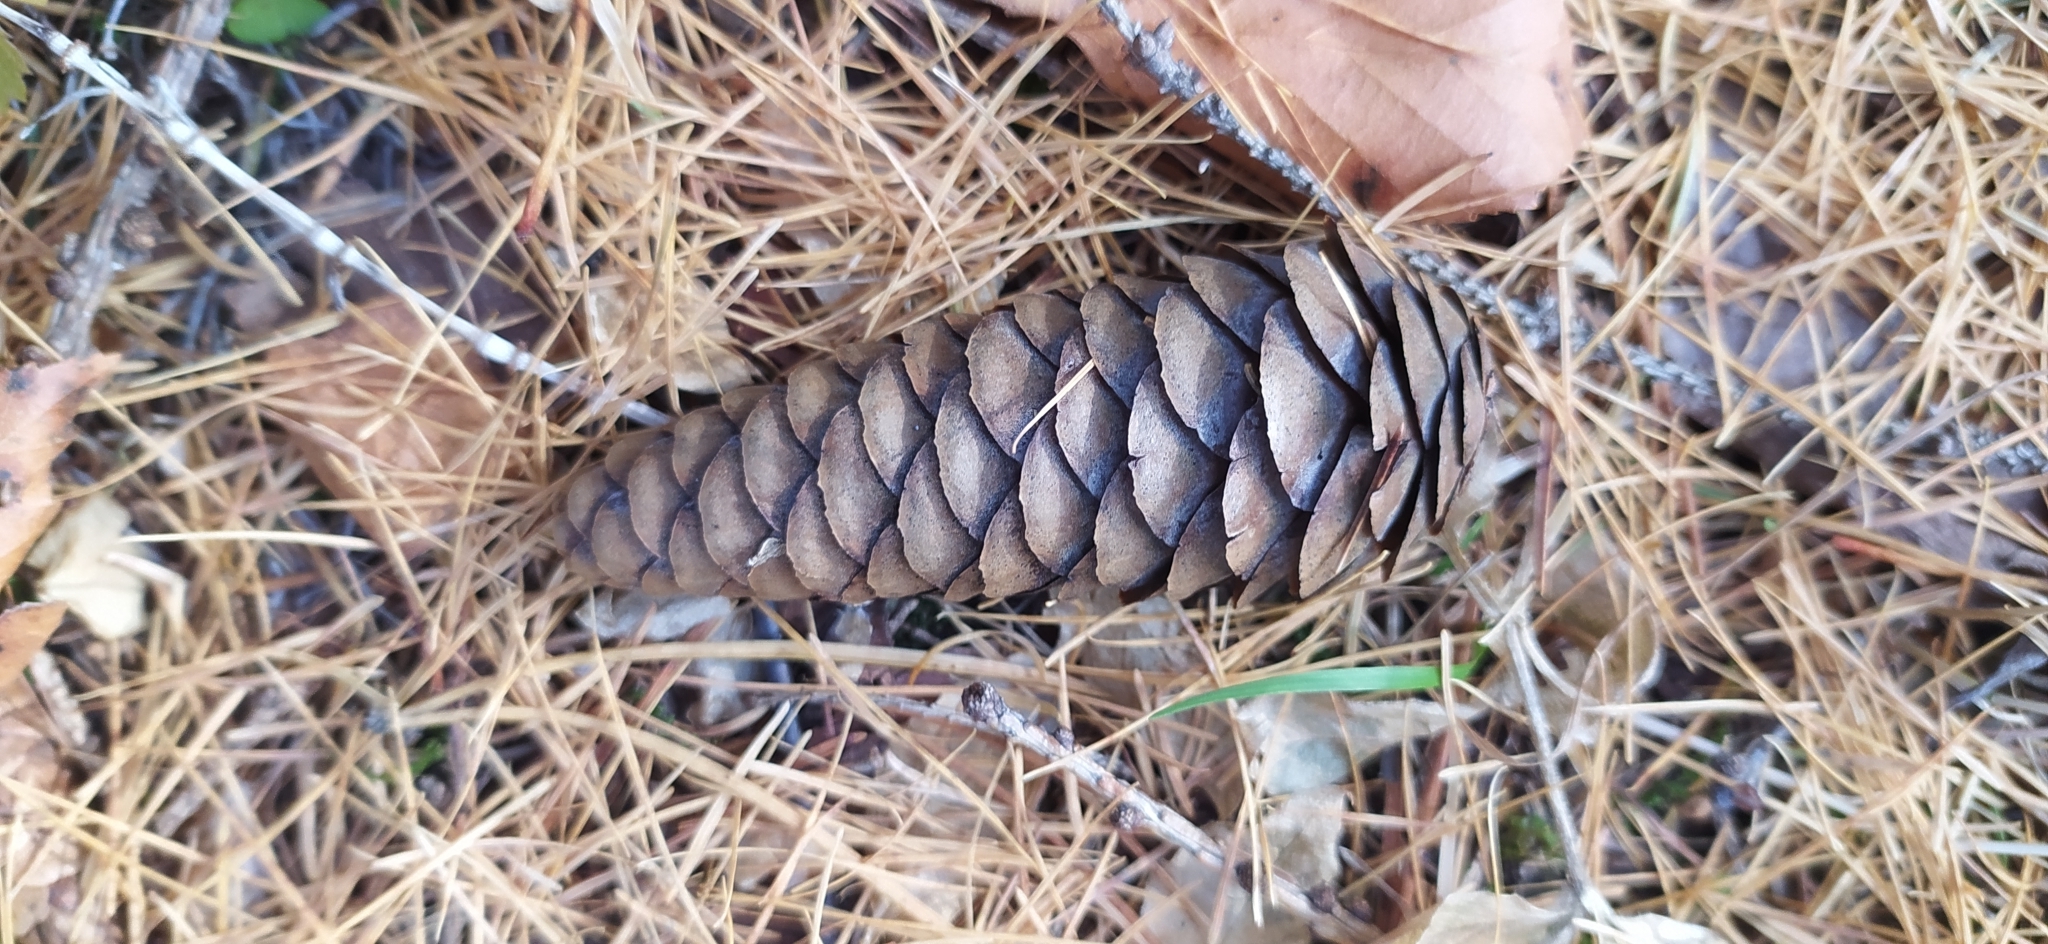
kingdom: Plantae
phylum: Tracheophyta
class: Pinopsida
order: Pinales
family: Pinaceae
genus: Picea
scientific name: Picea obovata
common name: Siberian spruce
